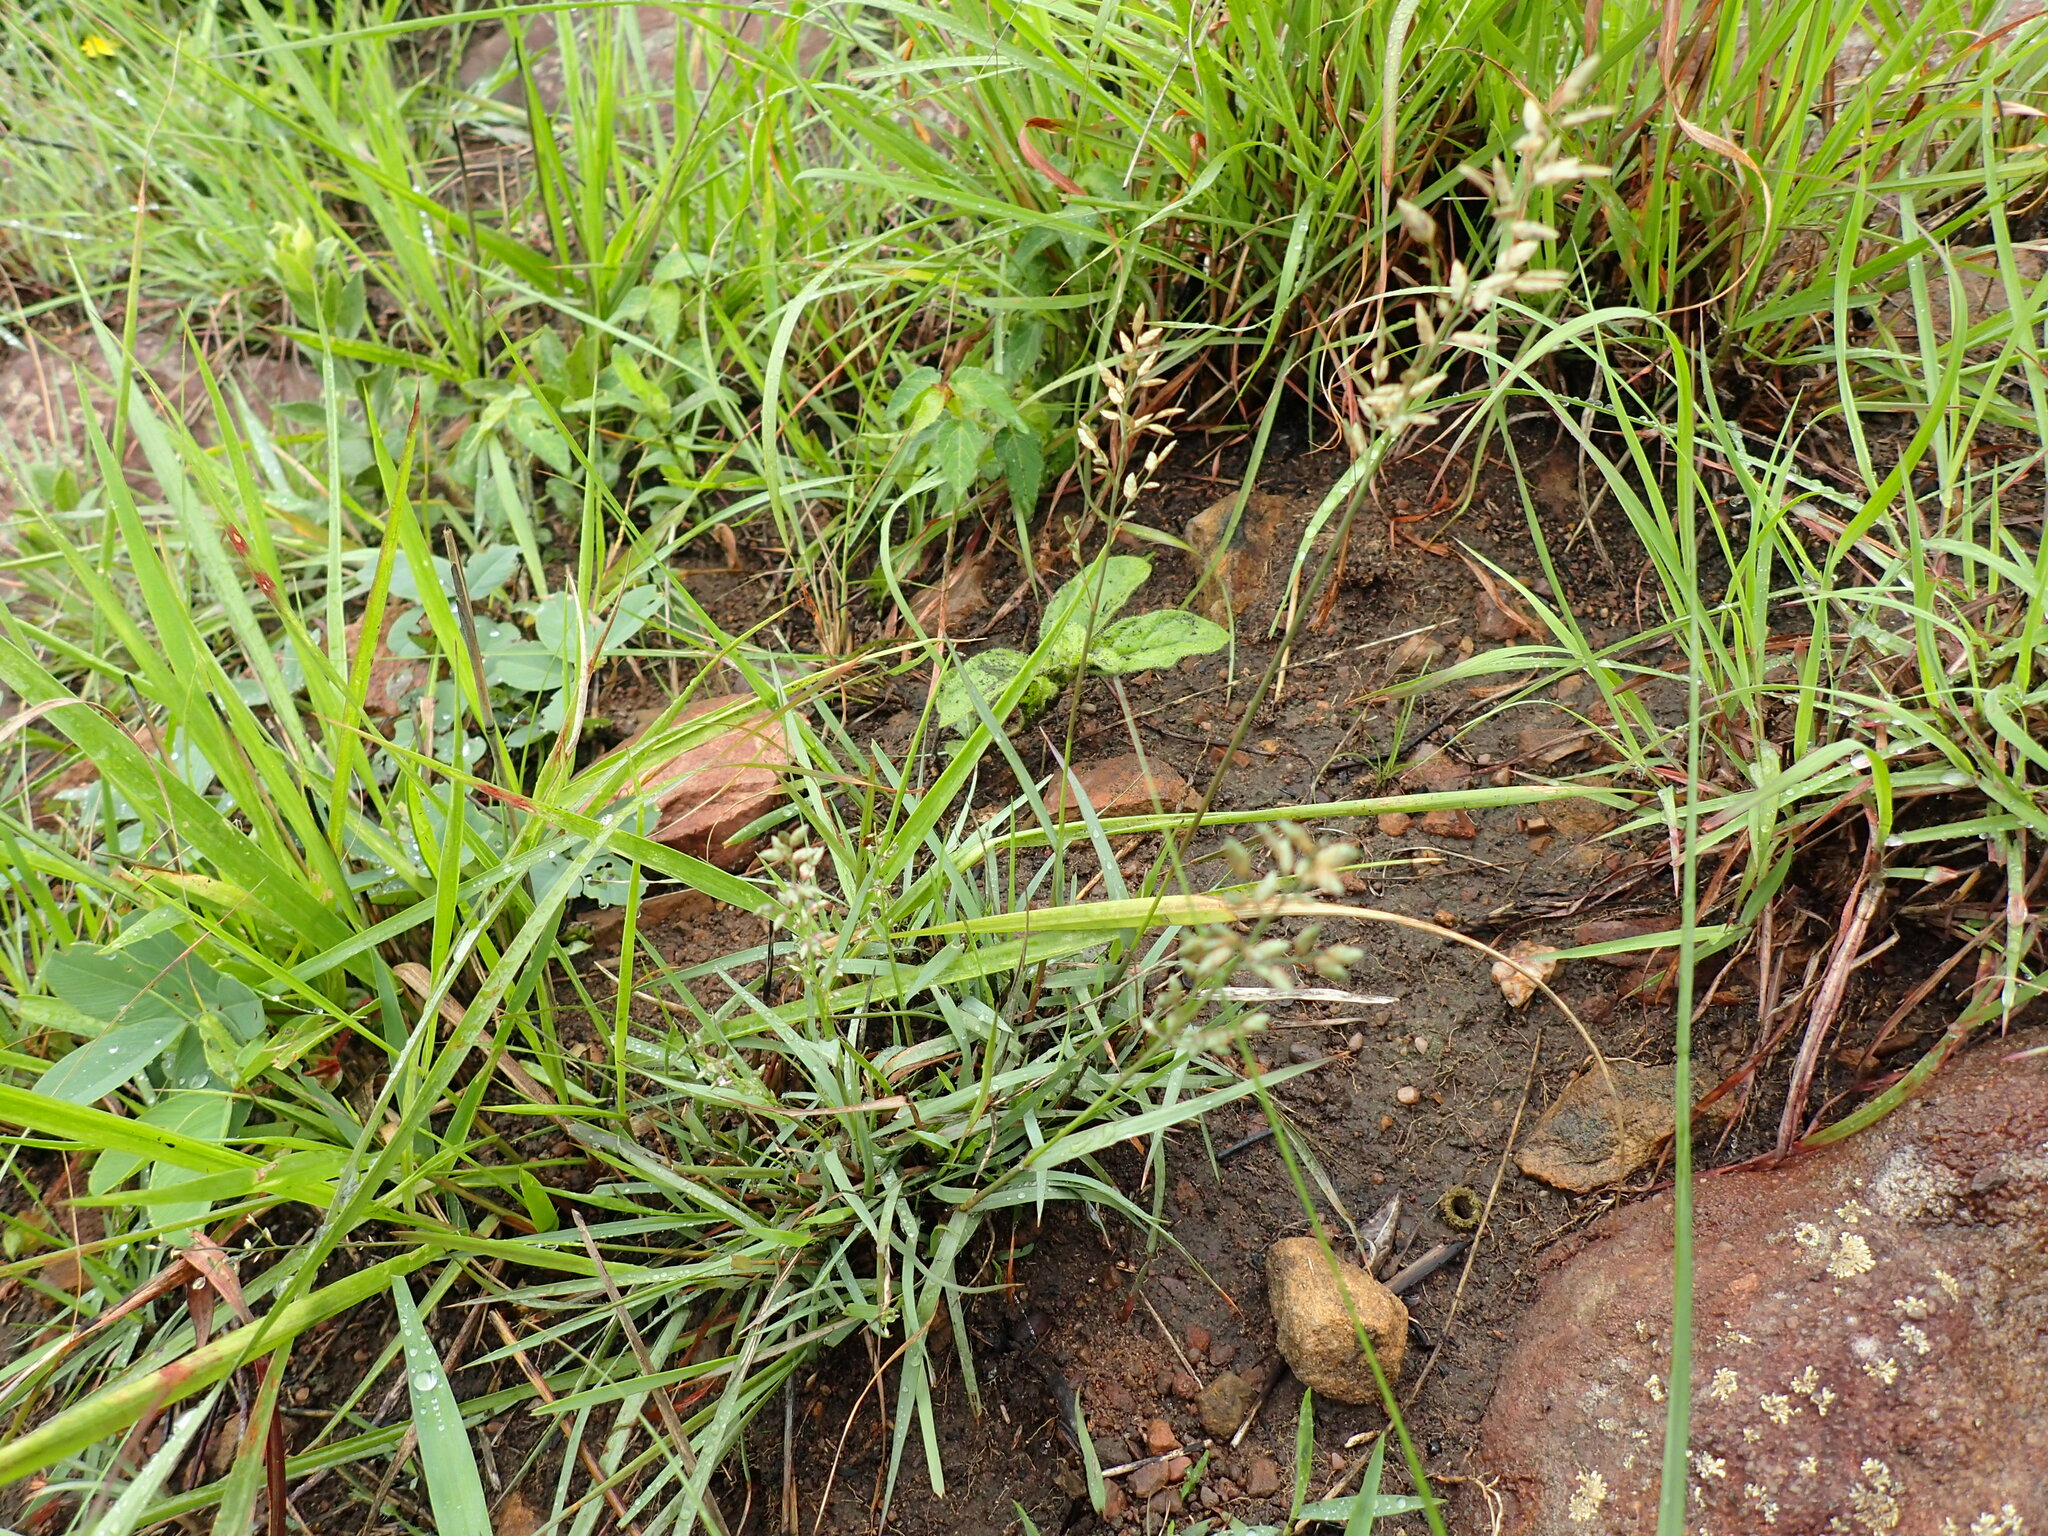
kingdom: Plantae
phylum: Tracheophyta
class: Liliopsida
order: Poales
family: Poaceae
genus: Eragrostis
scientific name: Eragrostis racemosa
